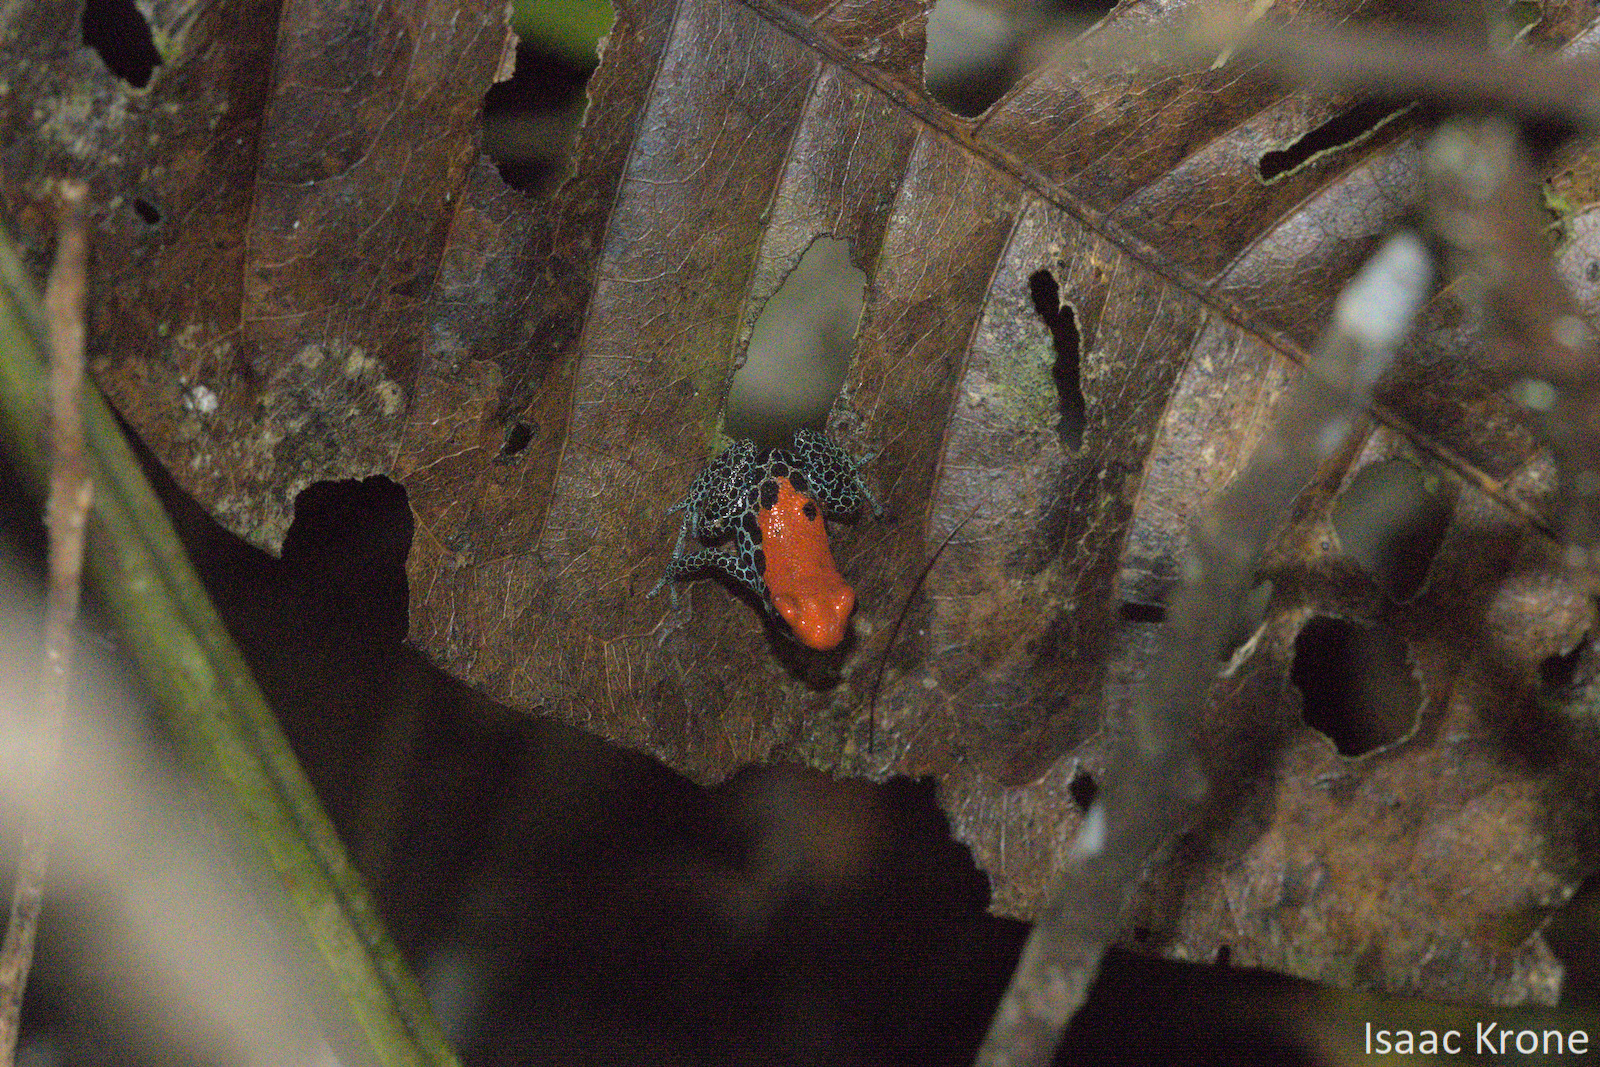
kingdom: Animalia
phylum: Chordata
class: Amphibia
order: Anura
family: Dendrobatidae
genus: Ranitomeya
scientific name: Ranitomeya reticulata
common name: Red-backed poison frog
